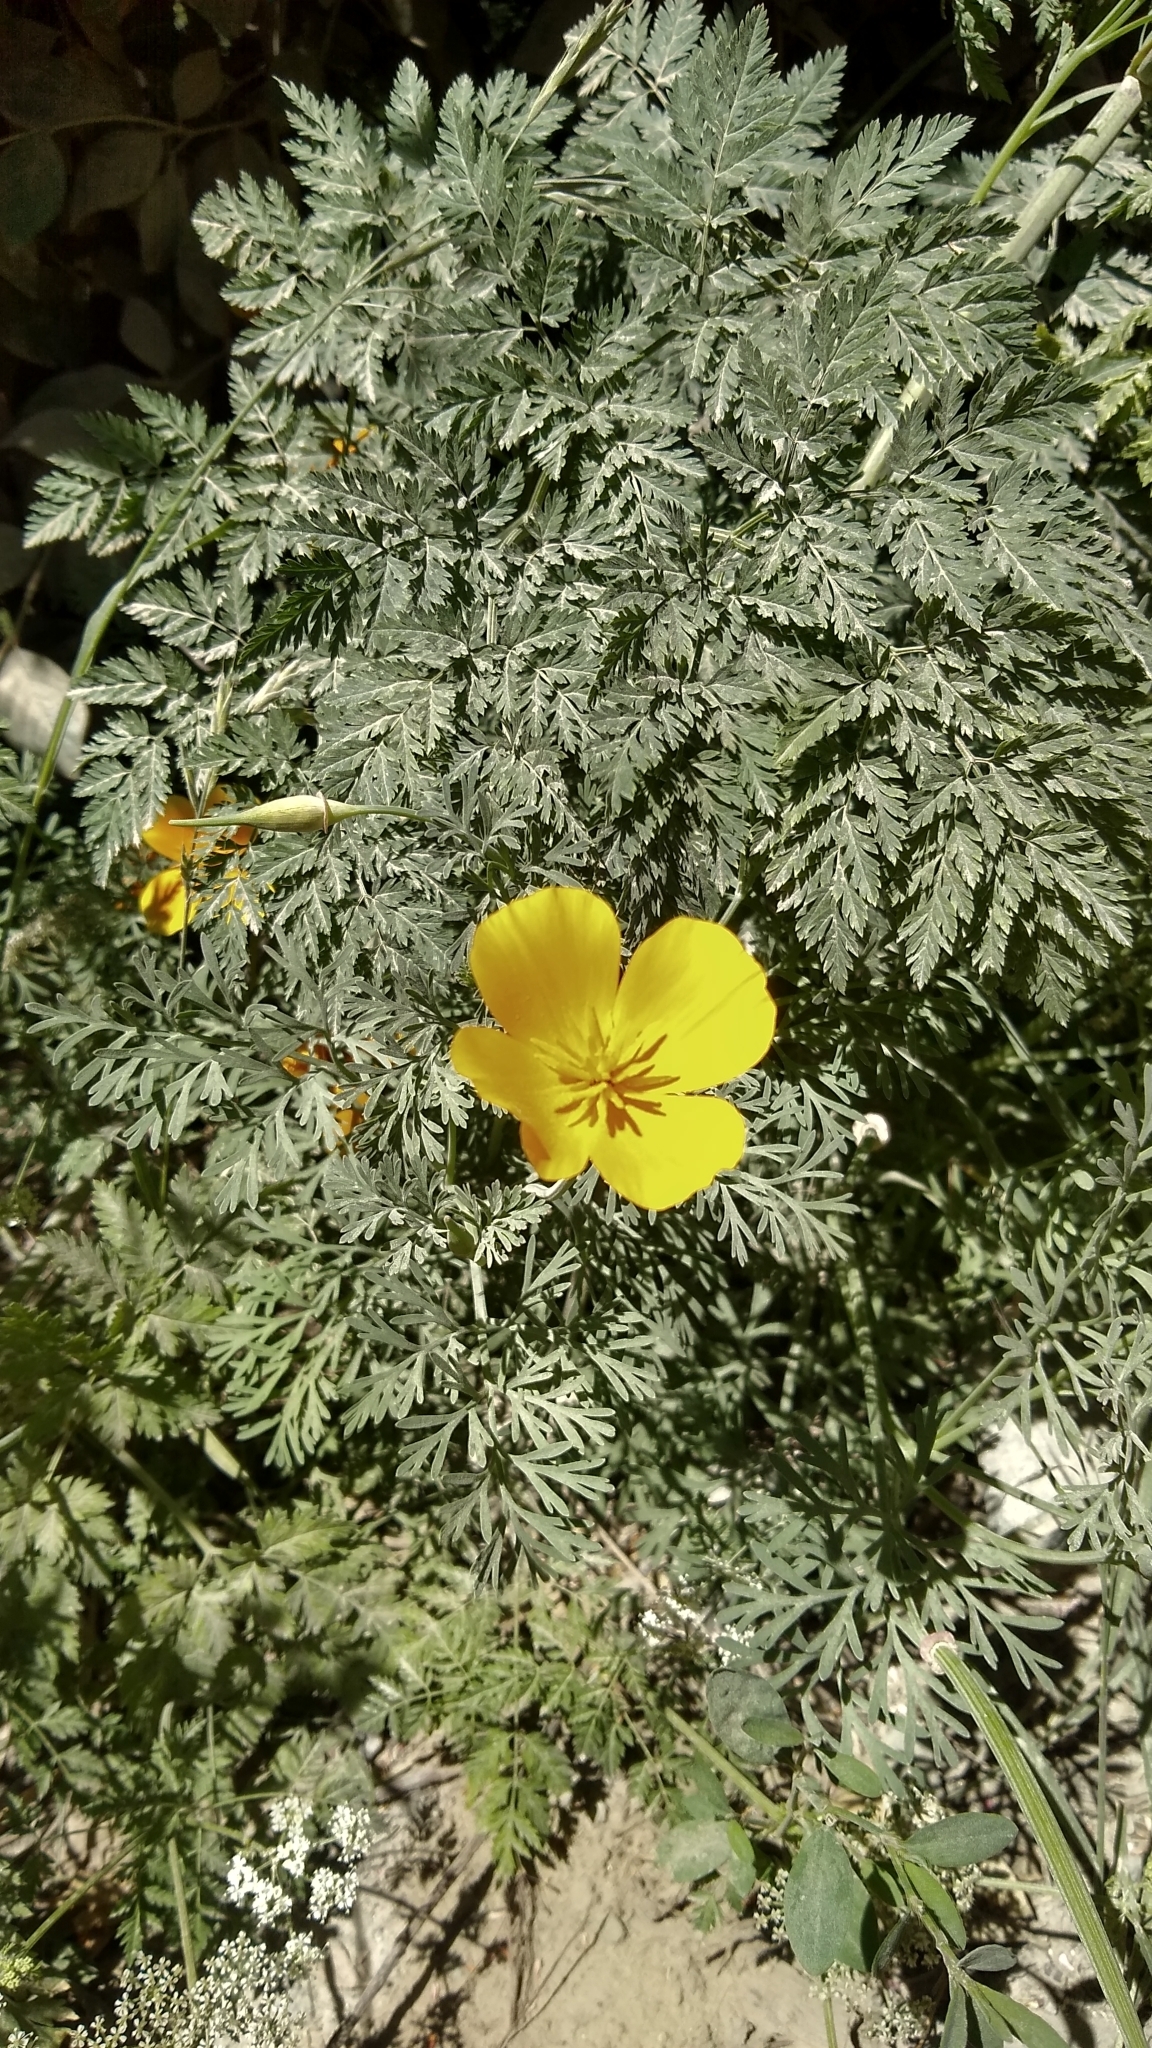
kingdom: Plantae
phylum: Tracheophyta
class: Magnoliopsida
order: Ranunculales
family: Papaveraceae
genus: Eschscholzia
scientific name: Eschscholzia californica
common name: California poppy
